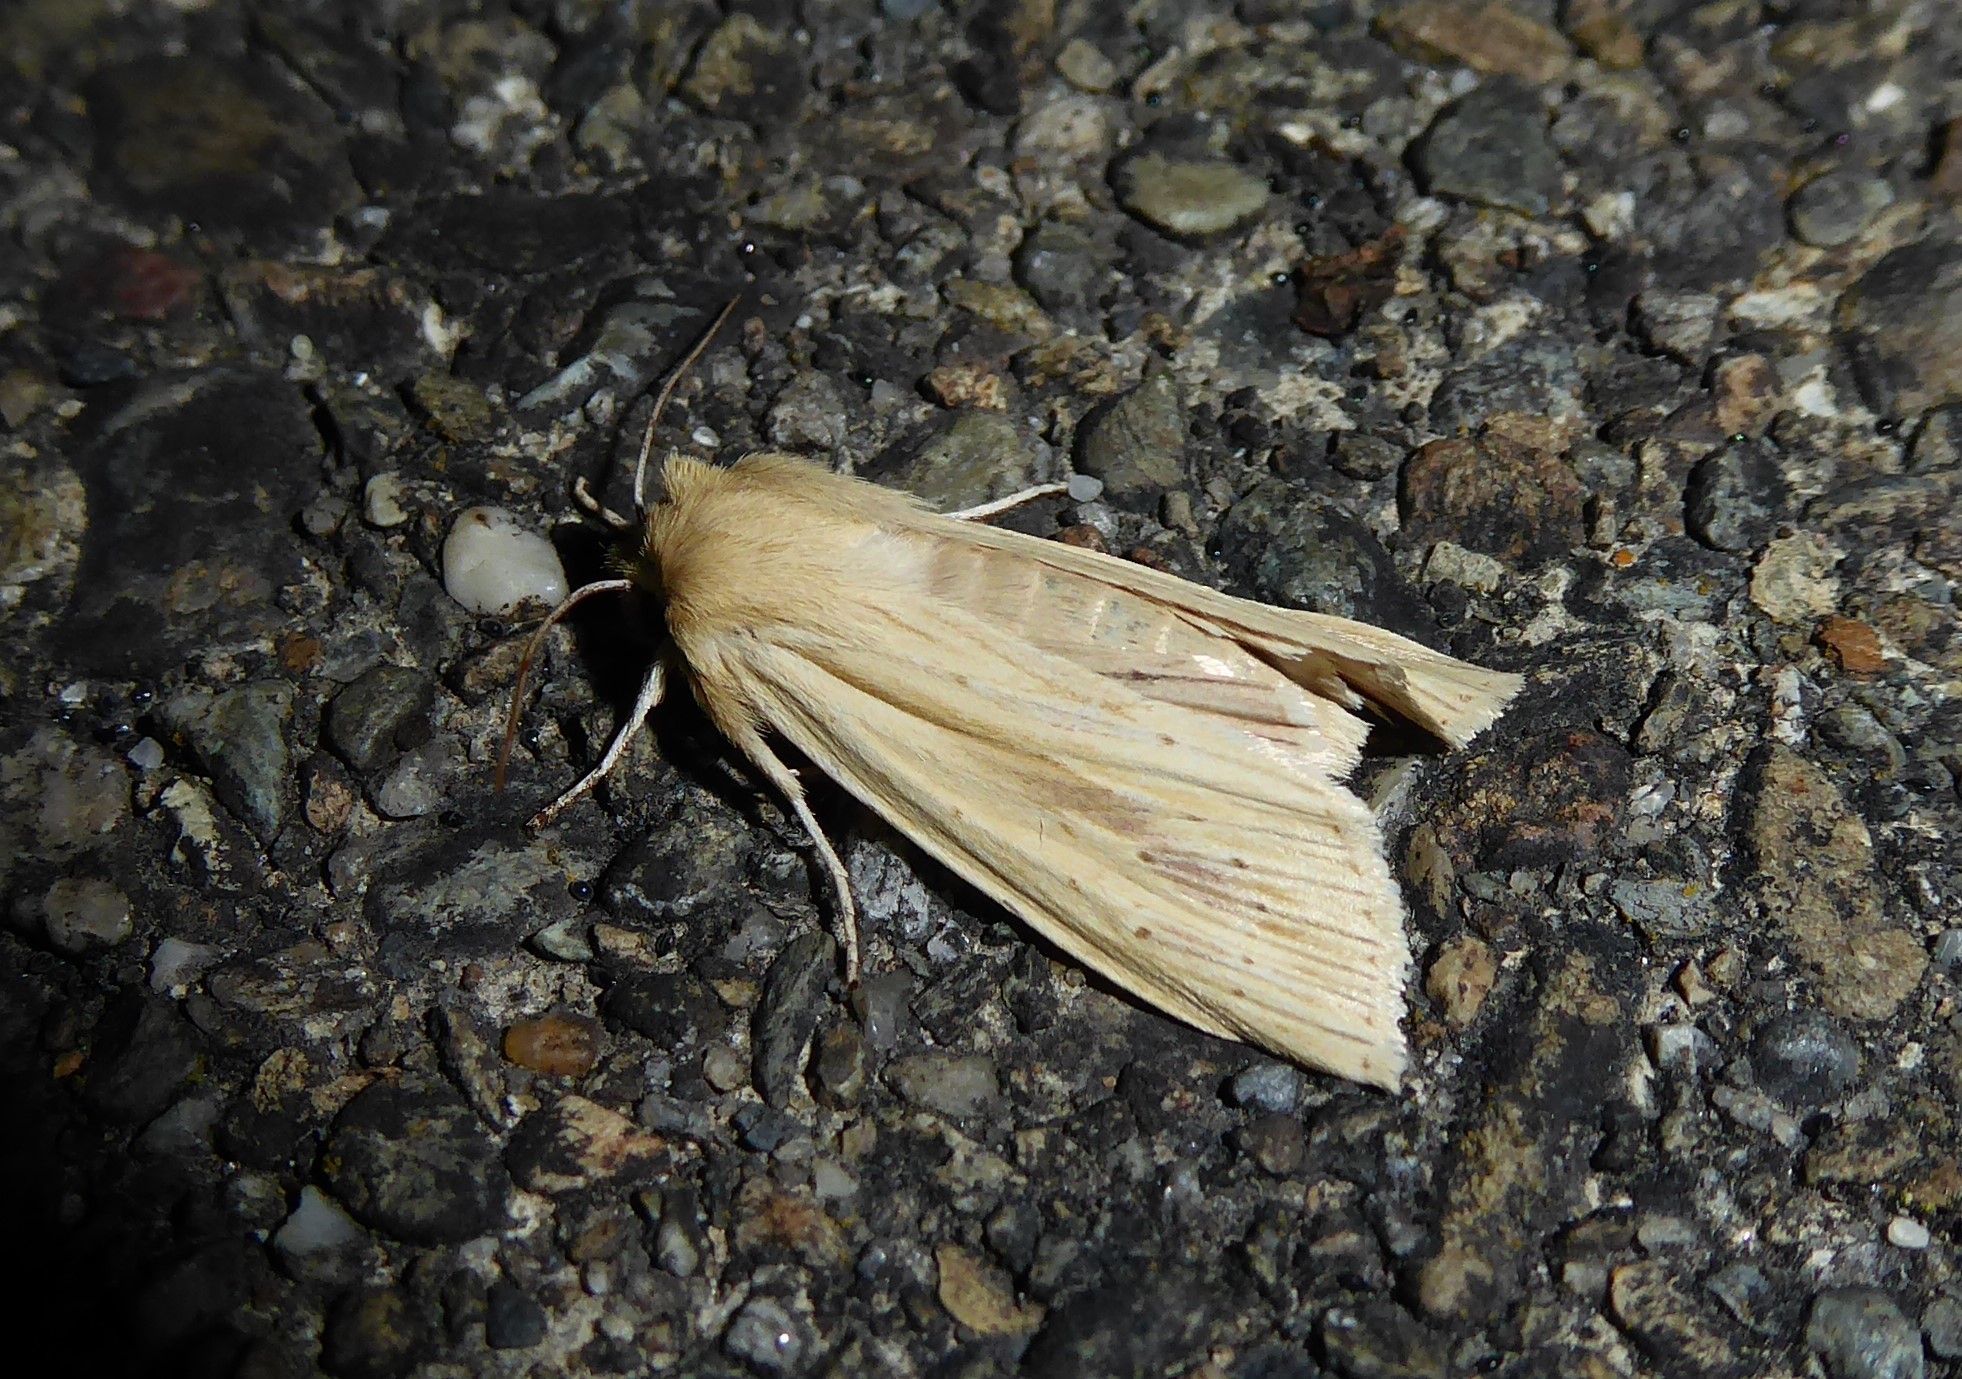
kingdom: Animalia
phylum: Arthropoda
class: Insecta
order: Lepidoptera
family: Noctuidae
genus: Ichneutica
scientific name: Ichneutica semivittata
